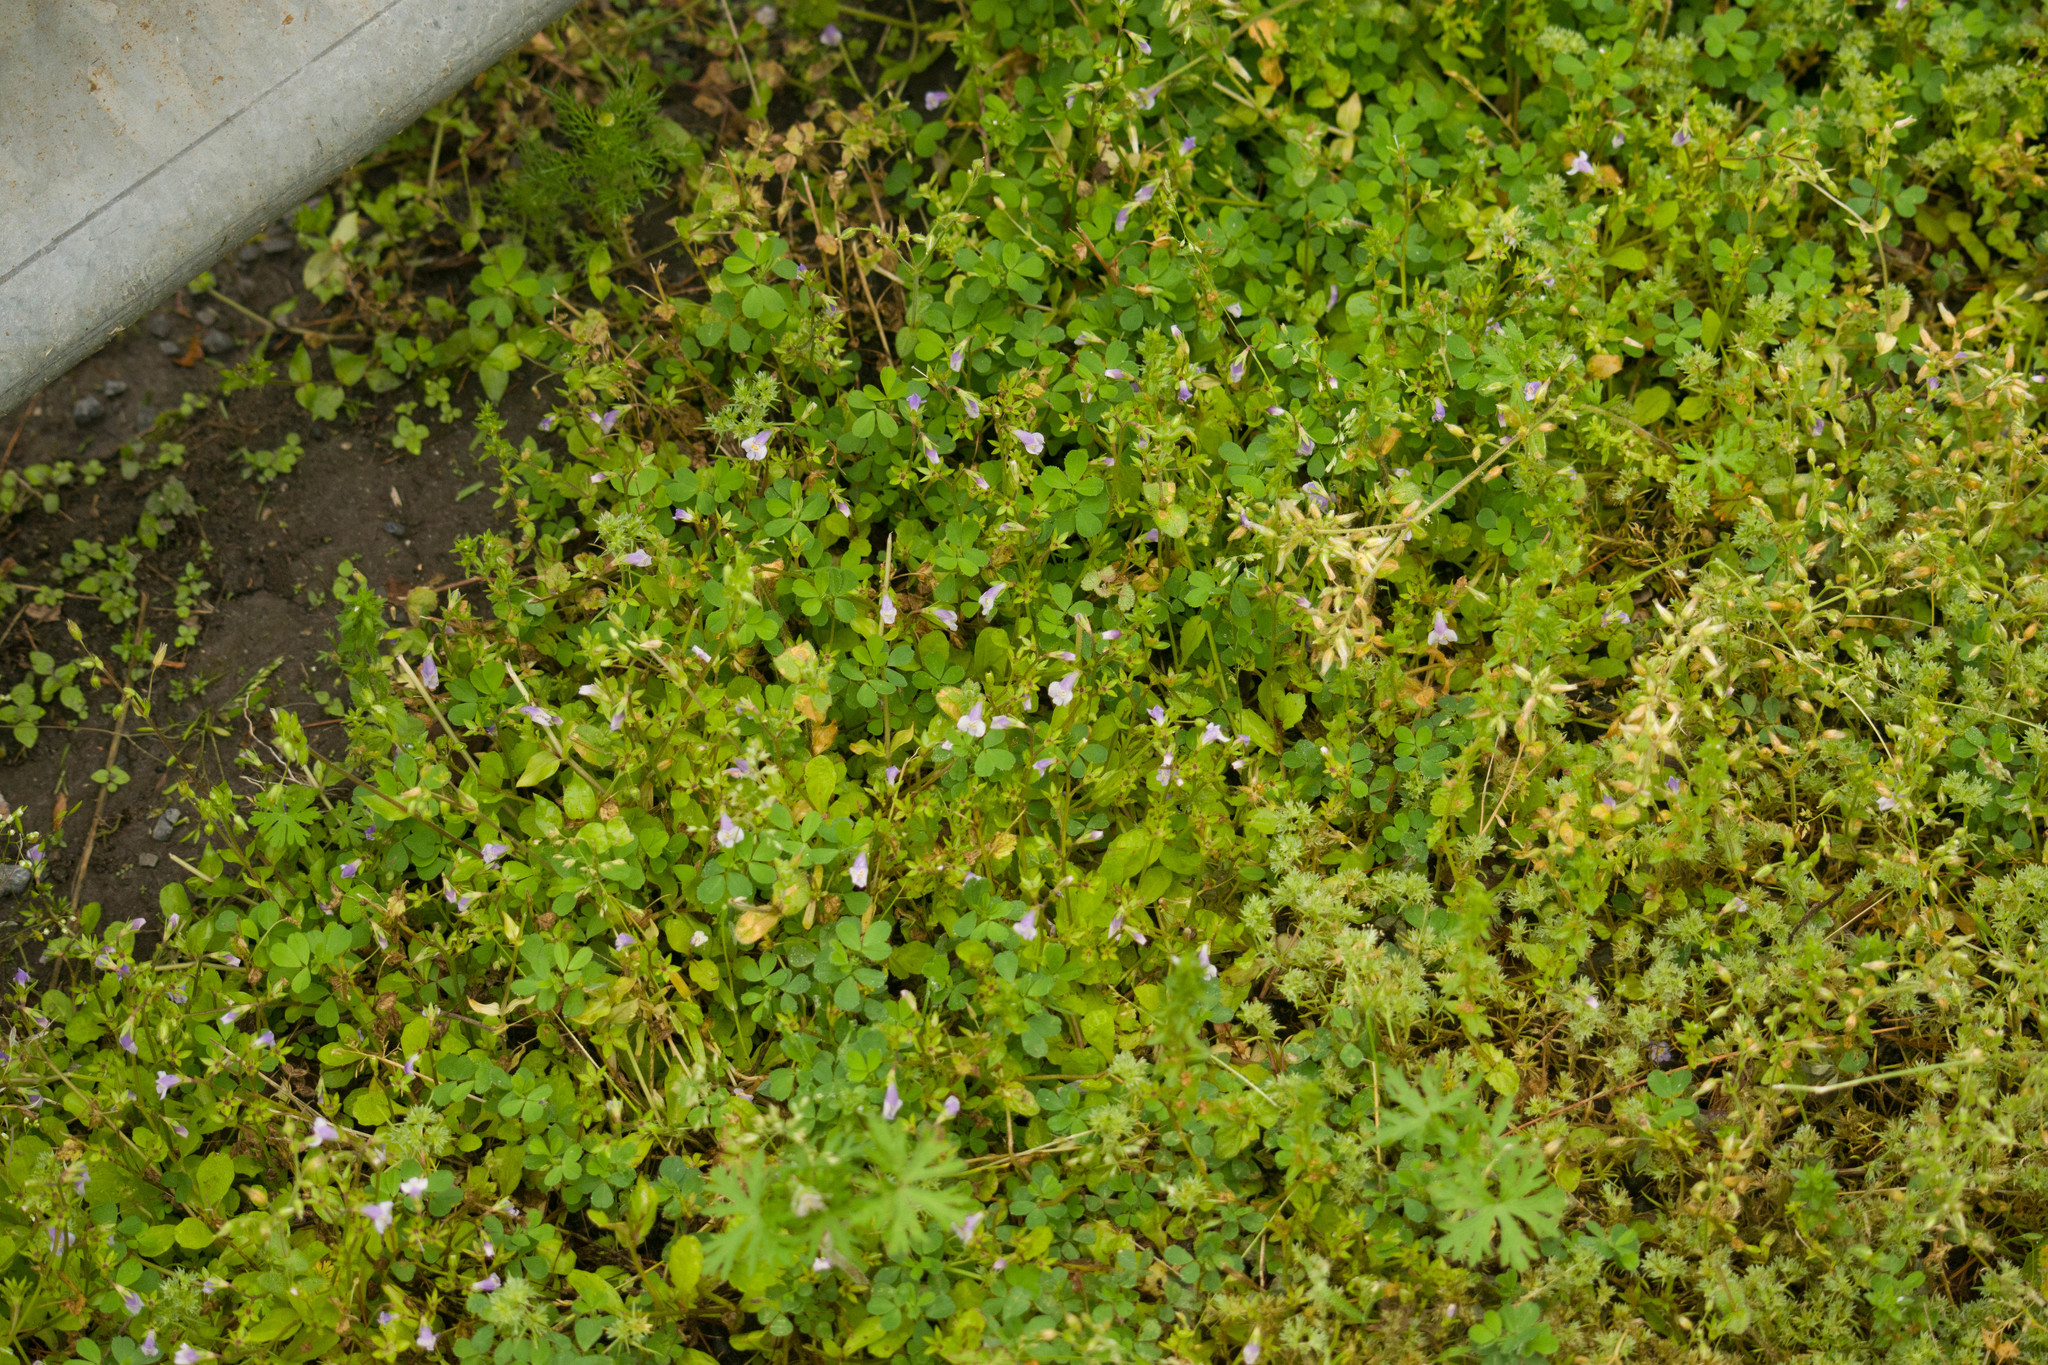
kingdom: Plantae
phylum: Tracheophyta
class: Magnoliopsida
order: Lamiales
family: Mazaceae
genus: Mazus
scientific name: Mazus pumilus
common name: Japanese mazus
